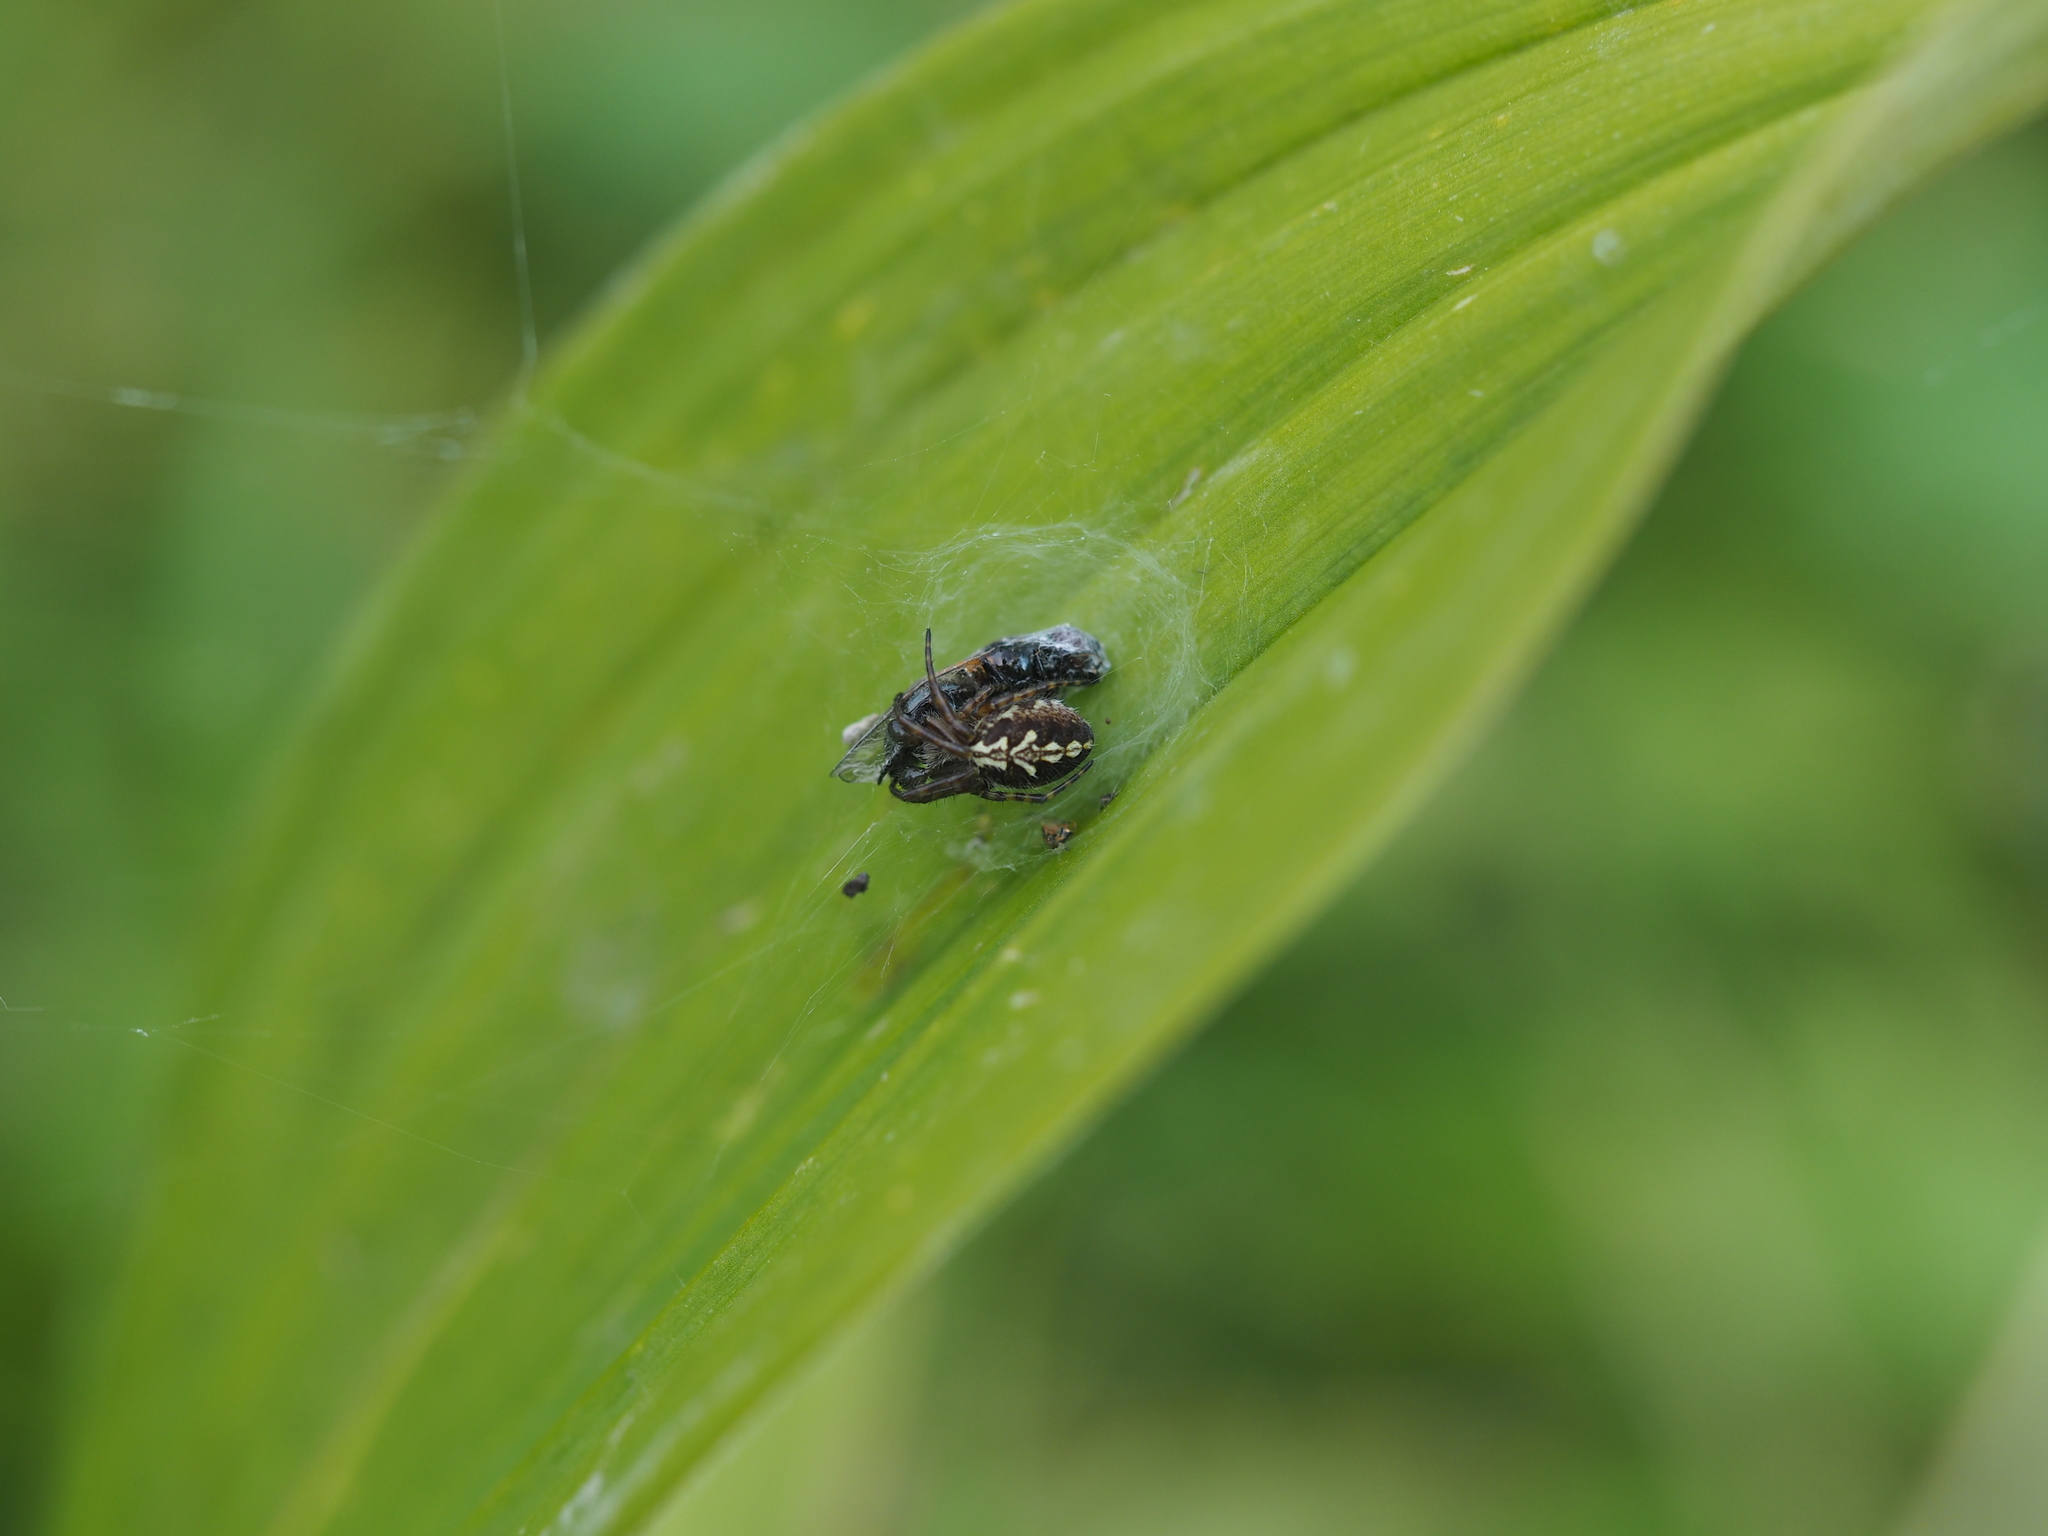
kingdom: Animalia
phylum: Arthropoda
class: Arachnida
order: Araneae
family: Araneidae
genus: Aculepeira
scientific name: Aculepeira ceropegia
